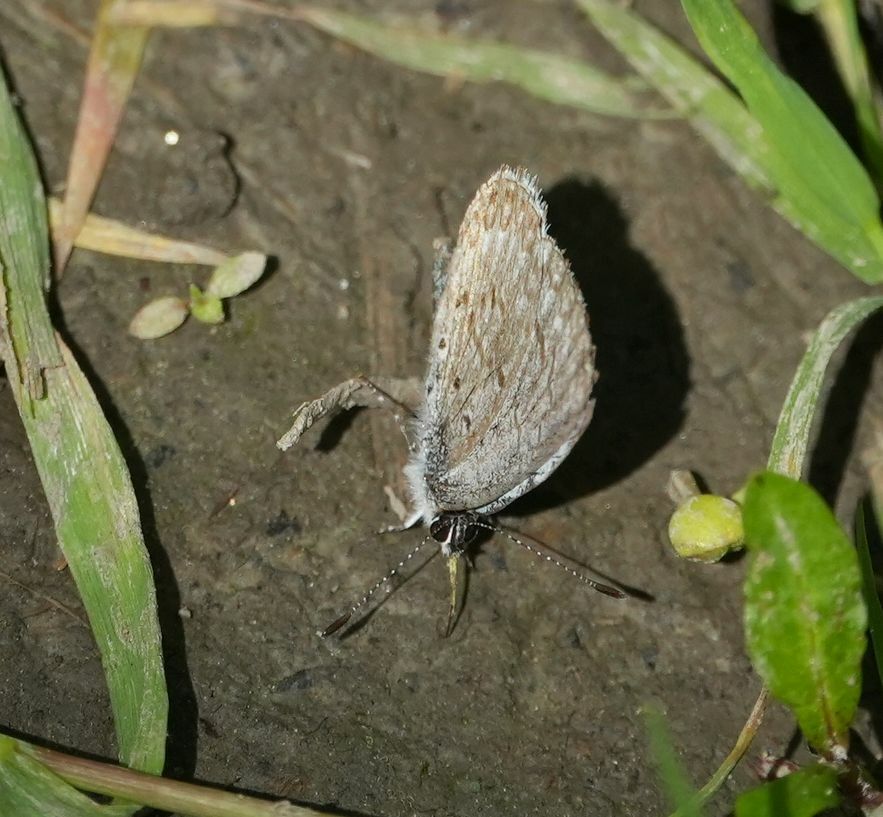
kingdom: Animalia
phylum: Arthropoda
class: Insecta
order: Lepidoptera
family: Lycaenidae
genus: Celastrina
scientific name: Celastrina lucia
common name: Lucia azure
